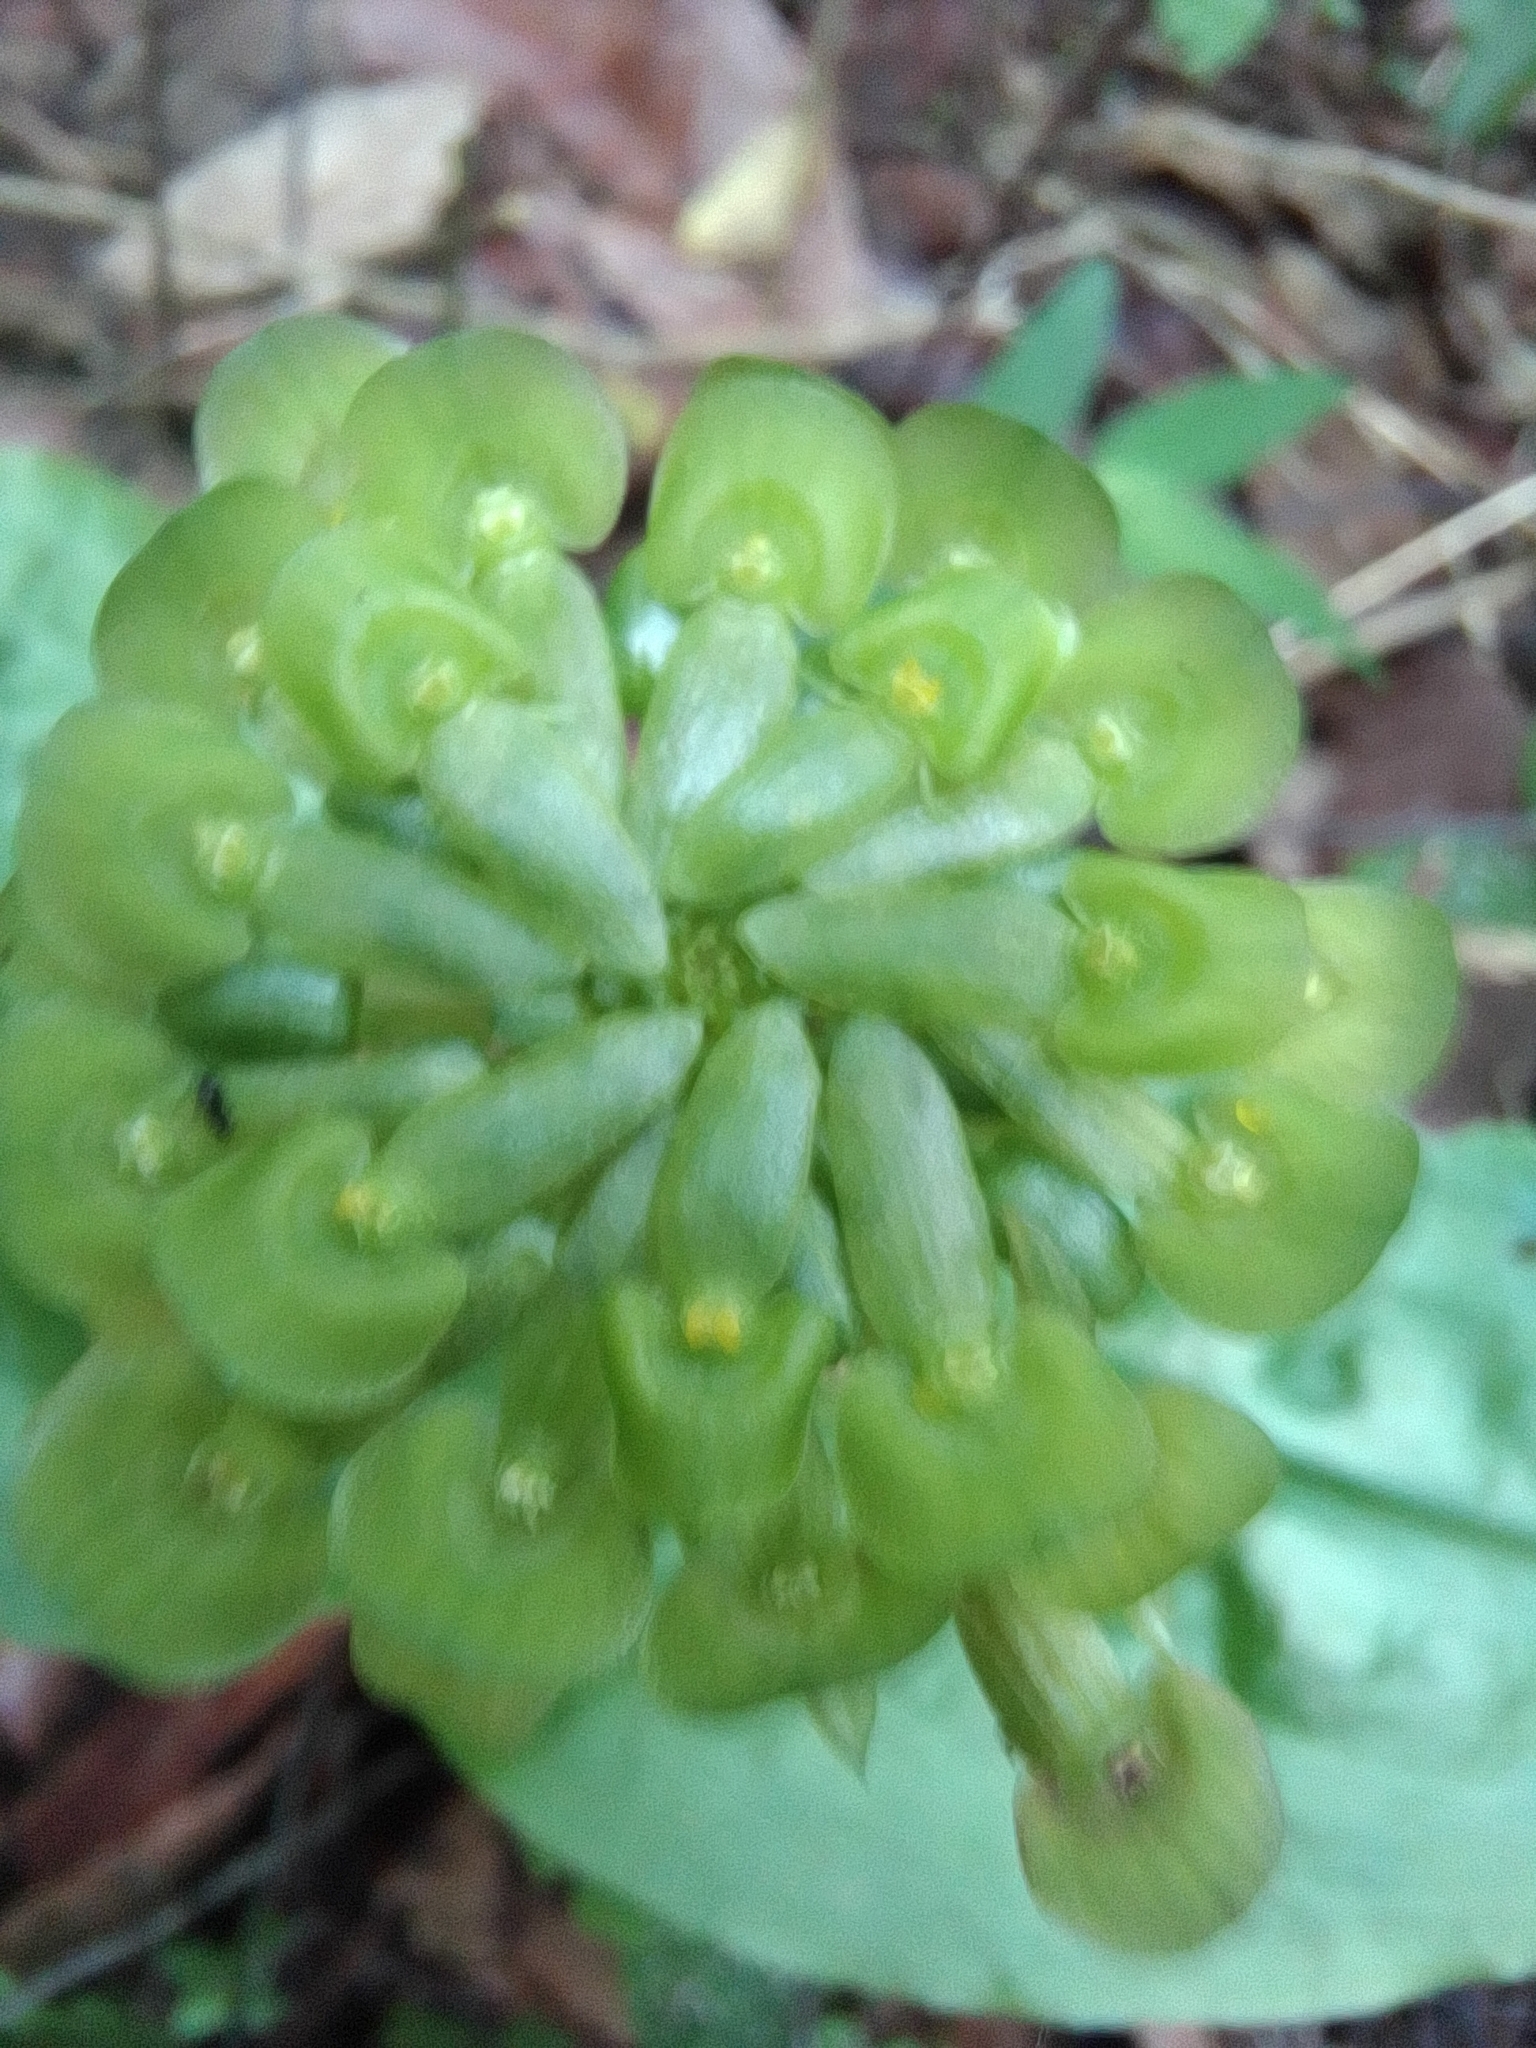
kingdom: Plantae
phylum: Tracheophyta
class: Liliopsida
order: Asparagales
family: Orchidaceae
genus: Malaxis
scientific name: Malaxis histionantha
